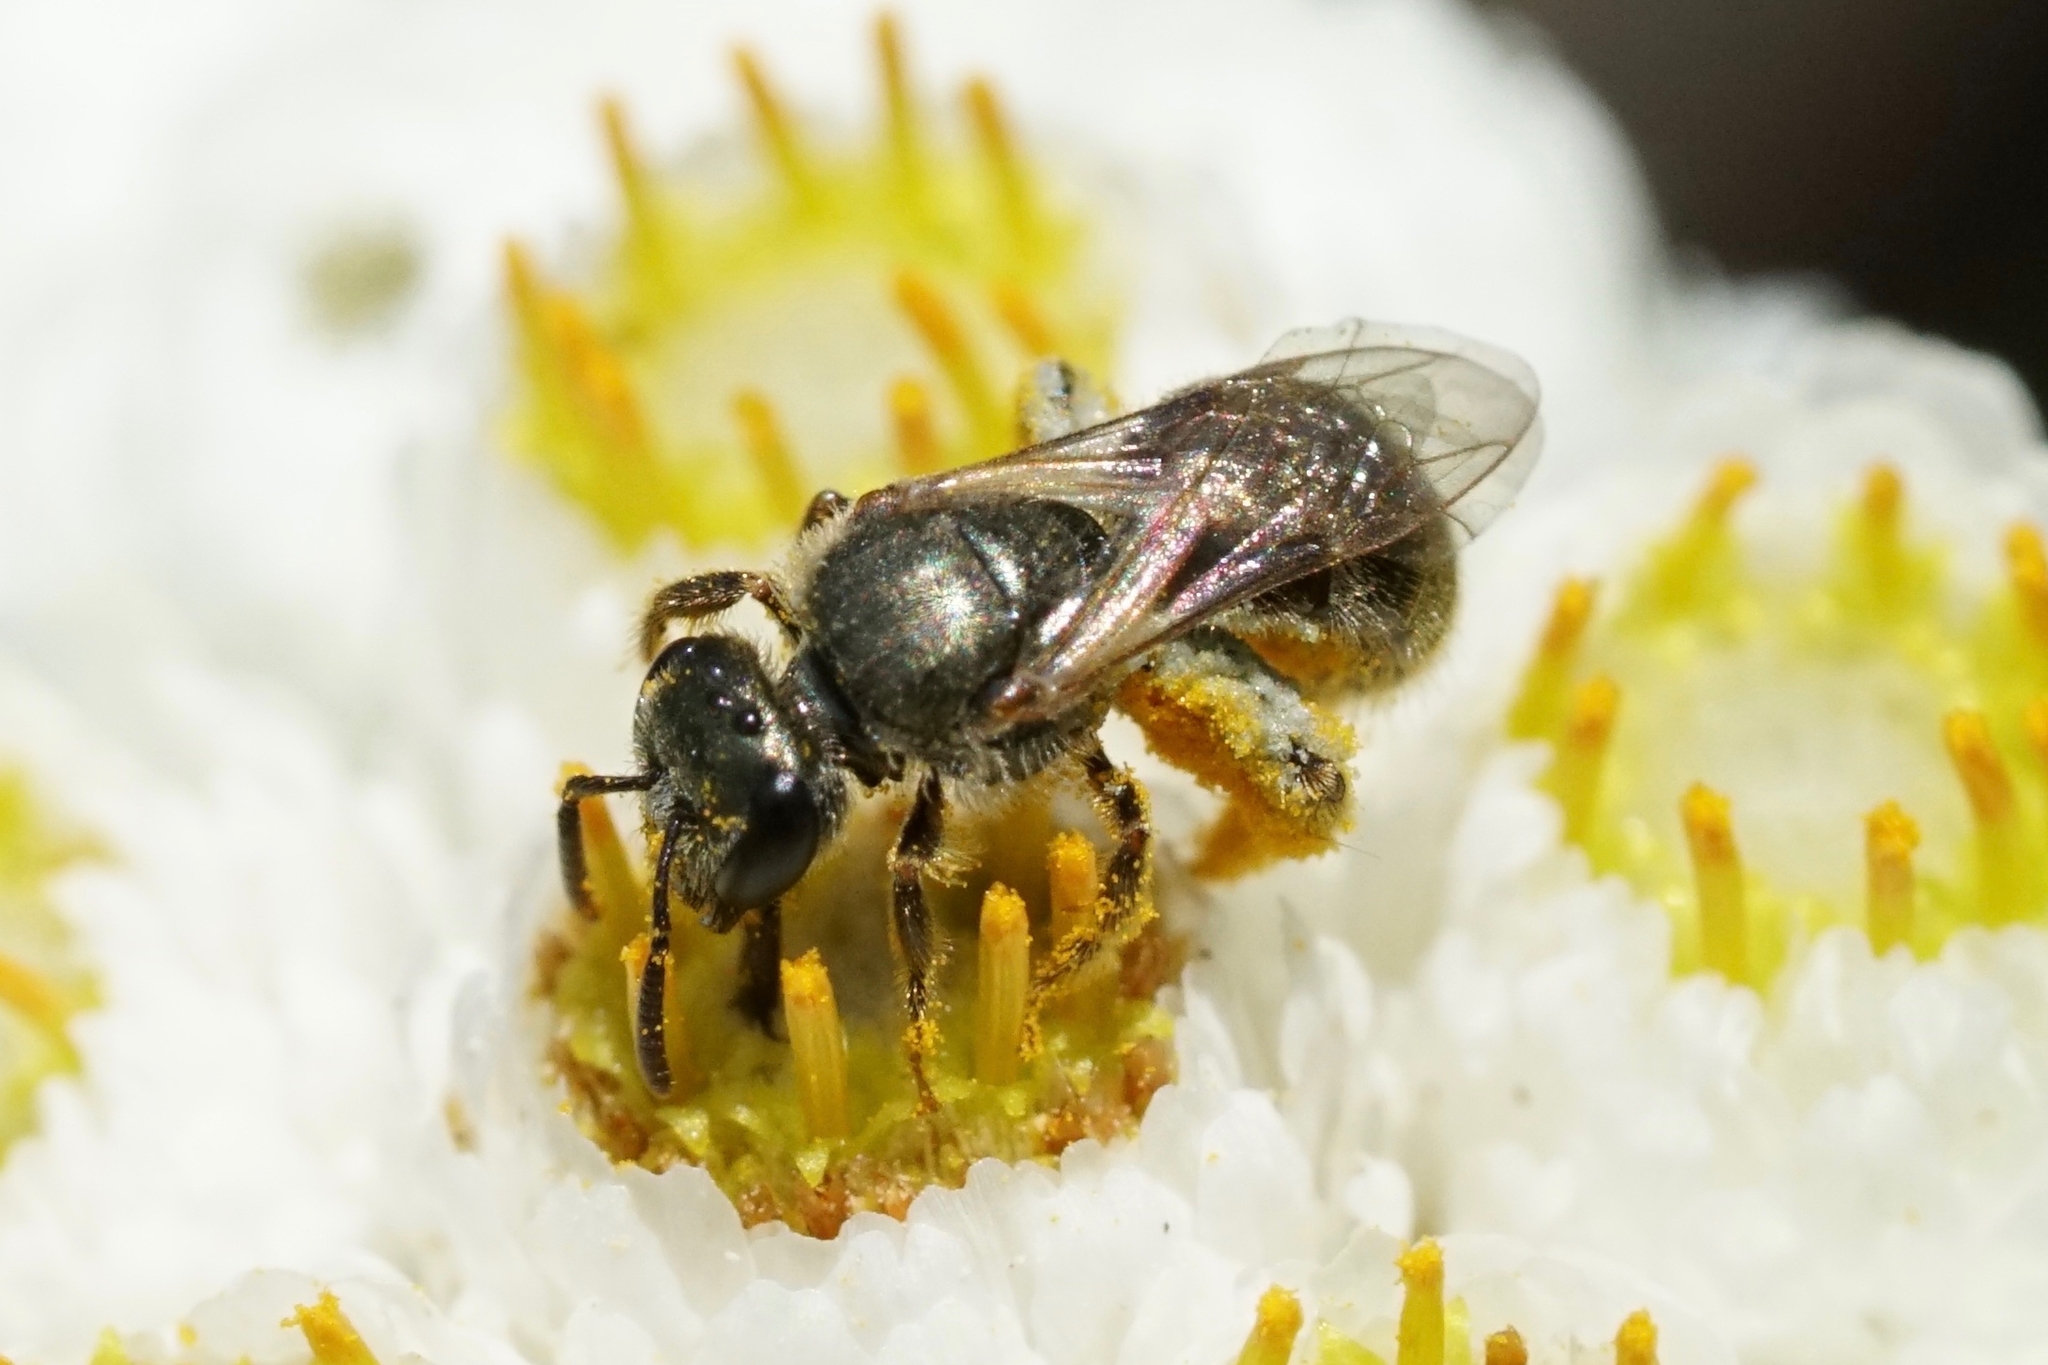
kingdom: Animalia
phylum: Arthropoda
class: Insecta
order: Hymenoptera
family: Halictidae
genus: Dialictus
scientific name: Dialictus
